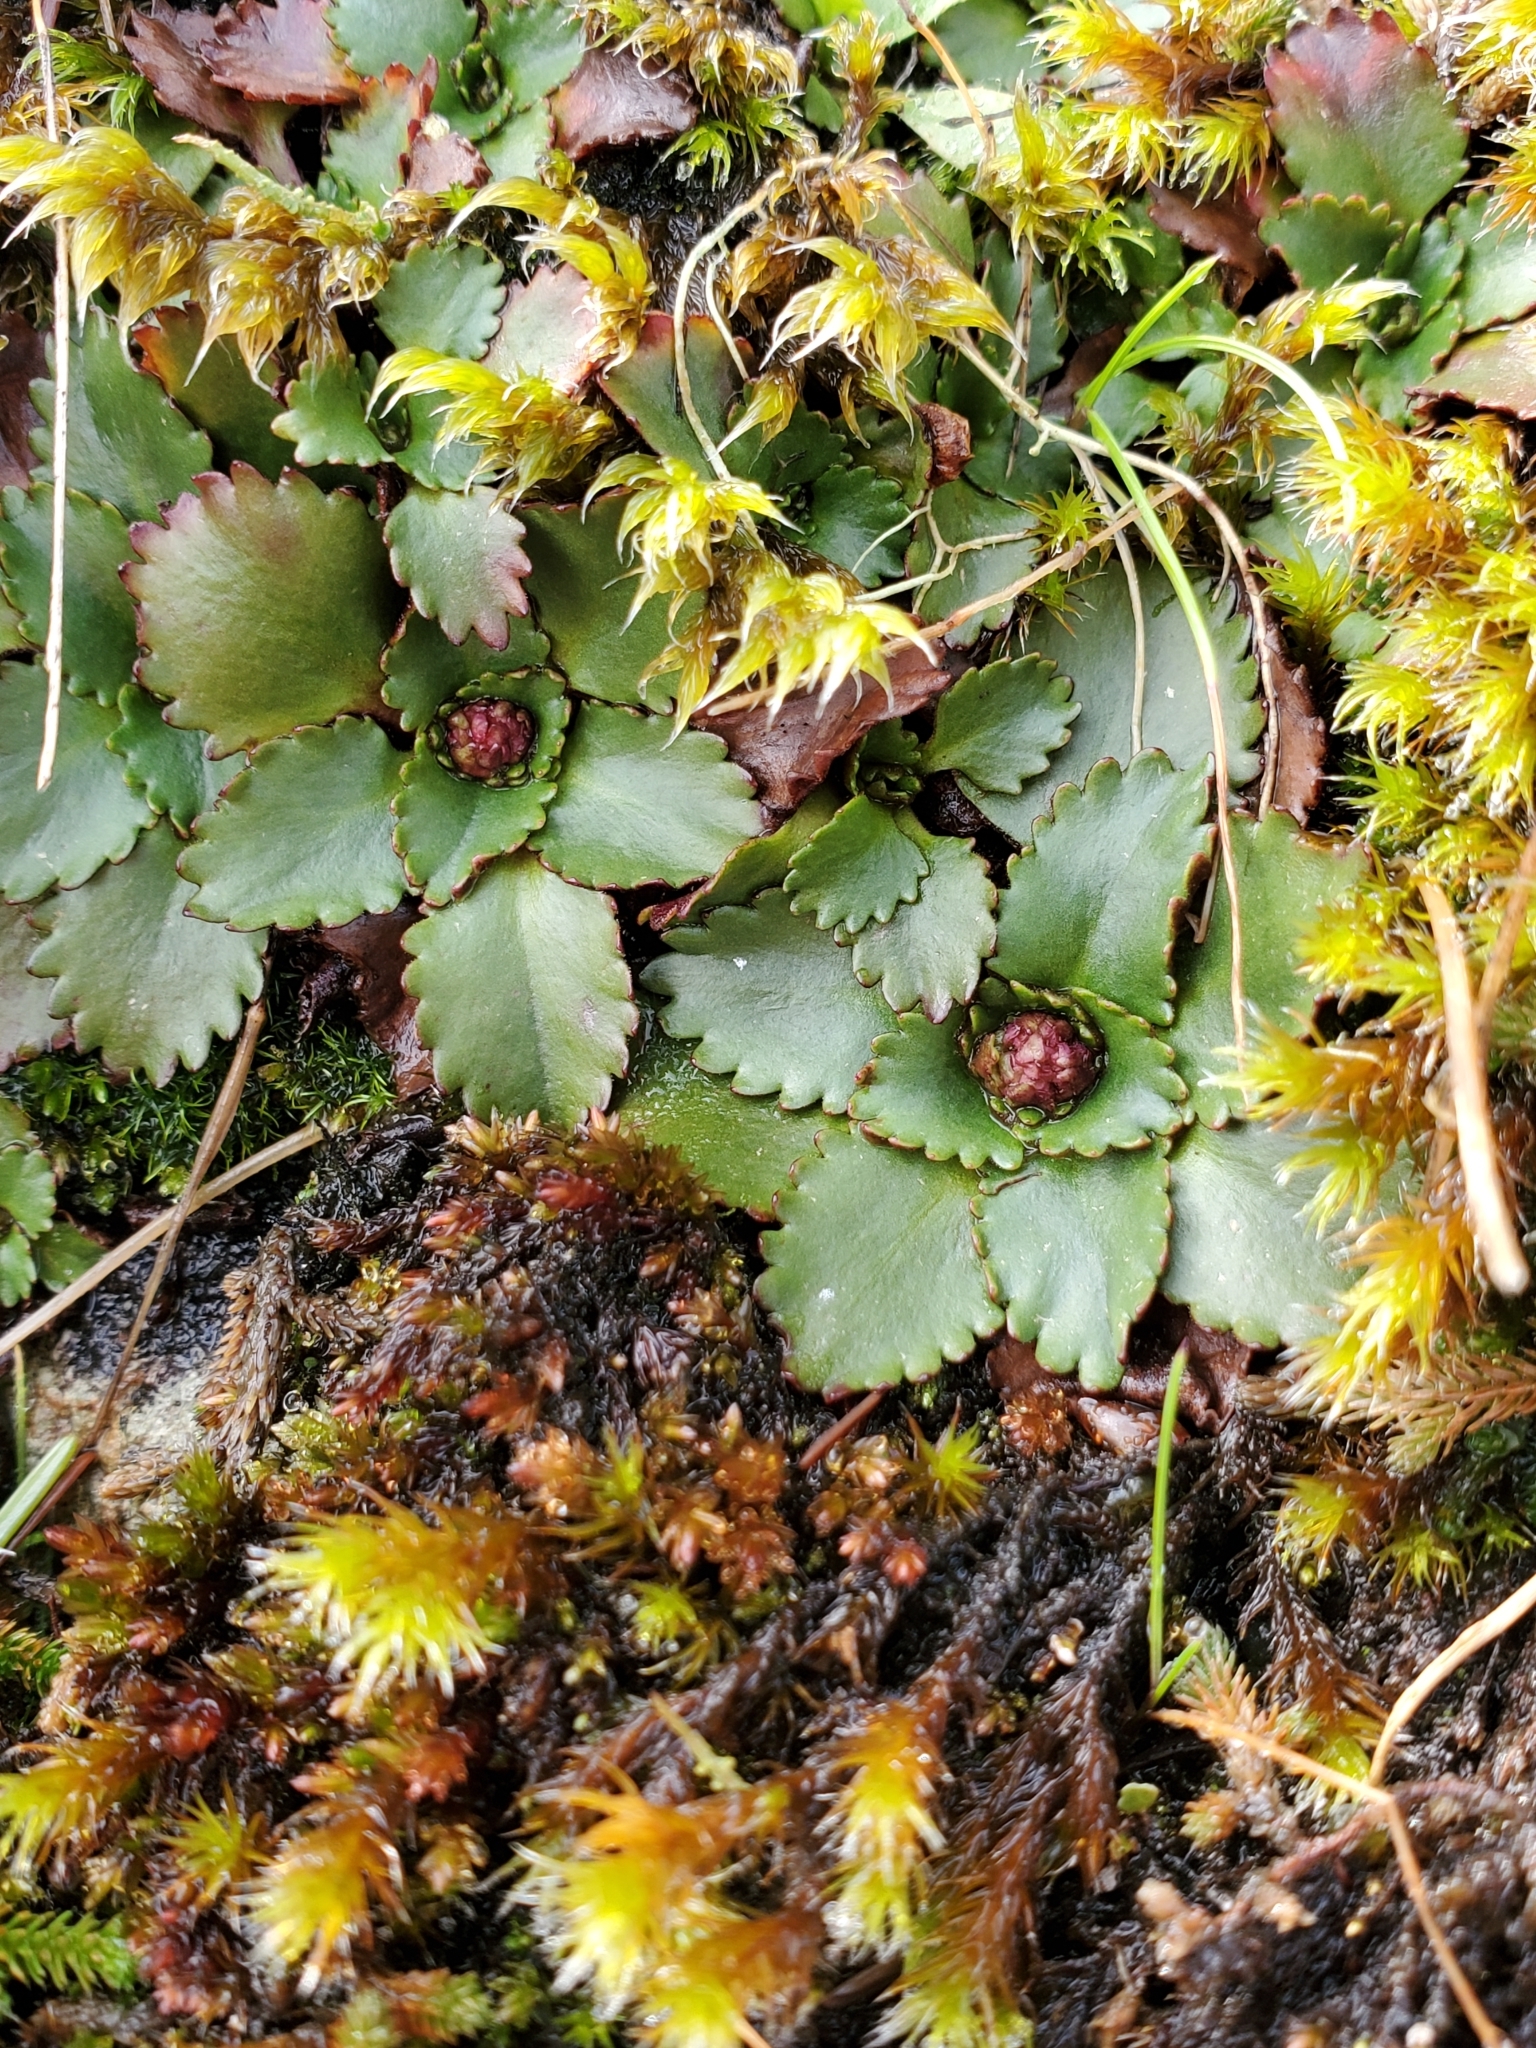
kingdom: Plantae
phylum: Tracheophyta
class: Magnoliopsida
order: Saxifragales
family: Saxifragaceae
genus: Micranthes
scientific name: Micranthes rufidula
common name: Rustyhair saxifrage
